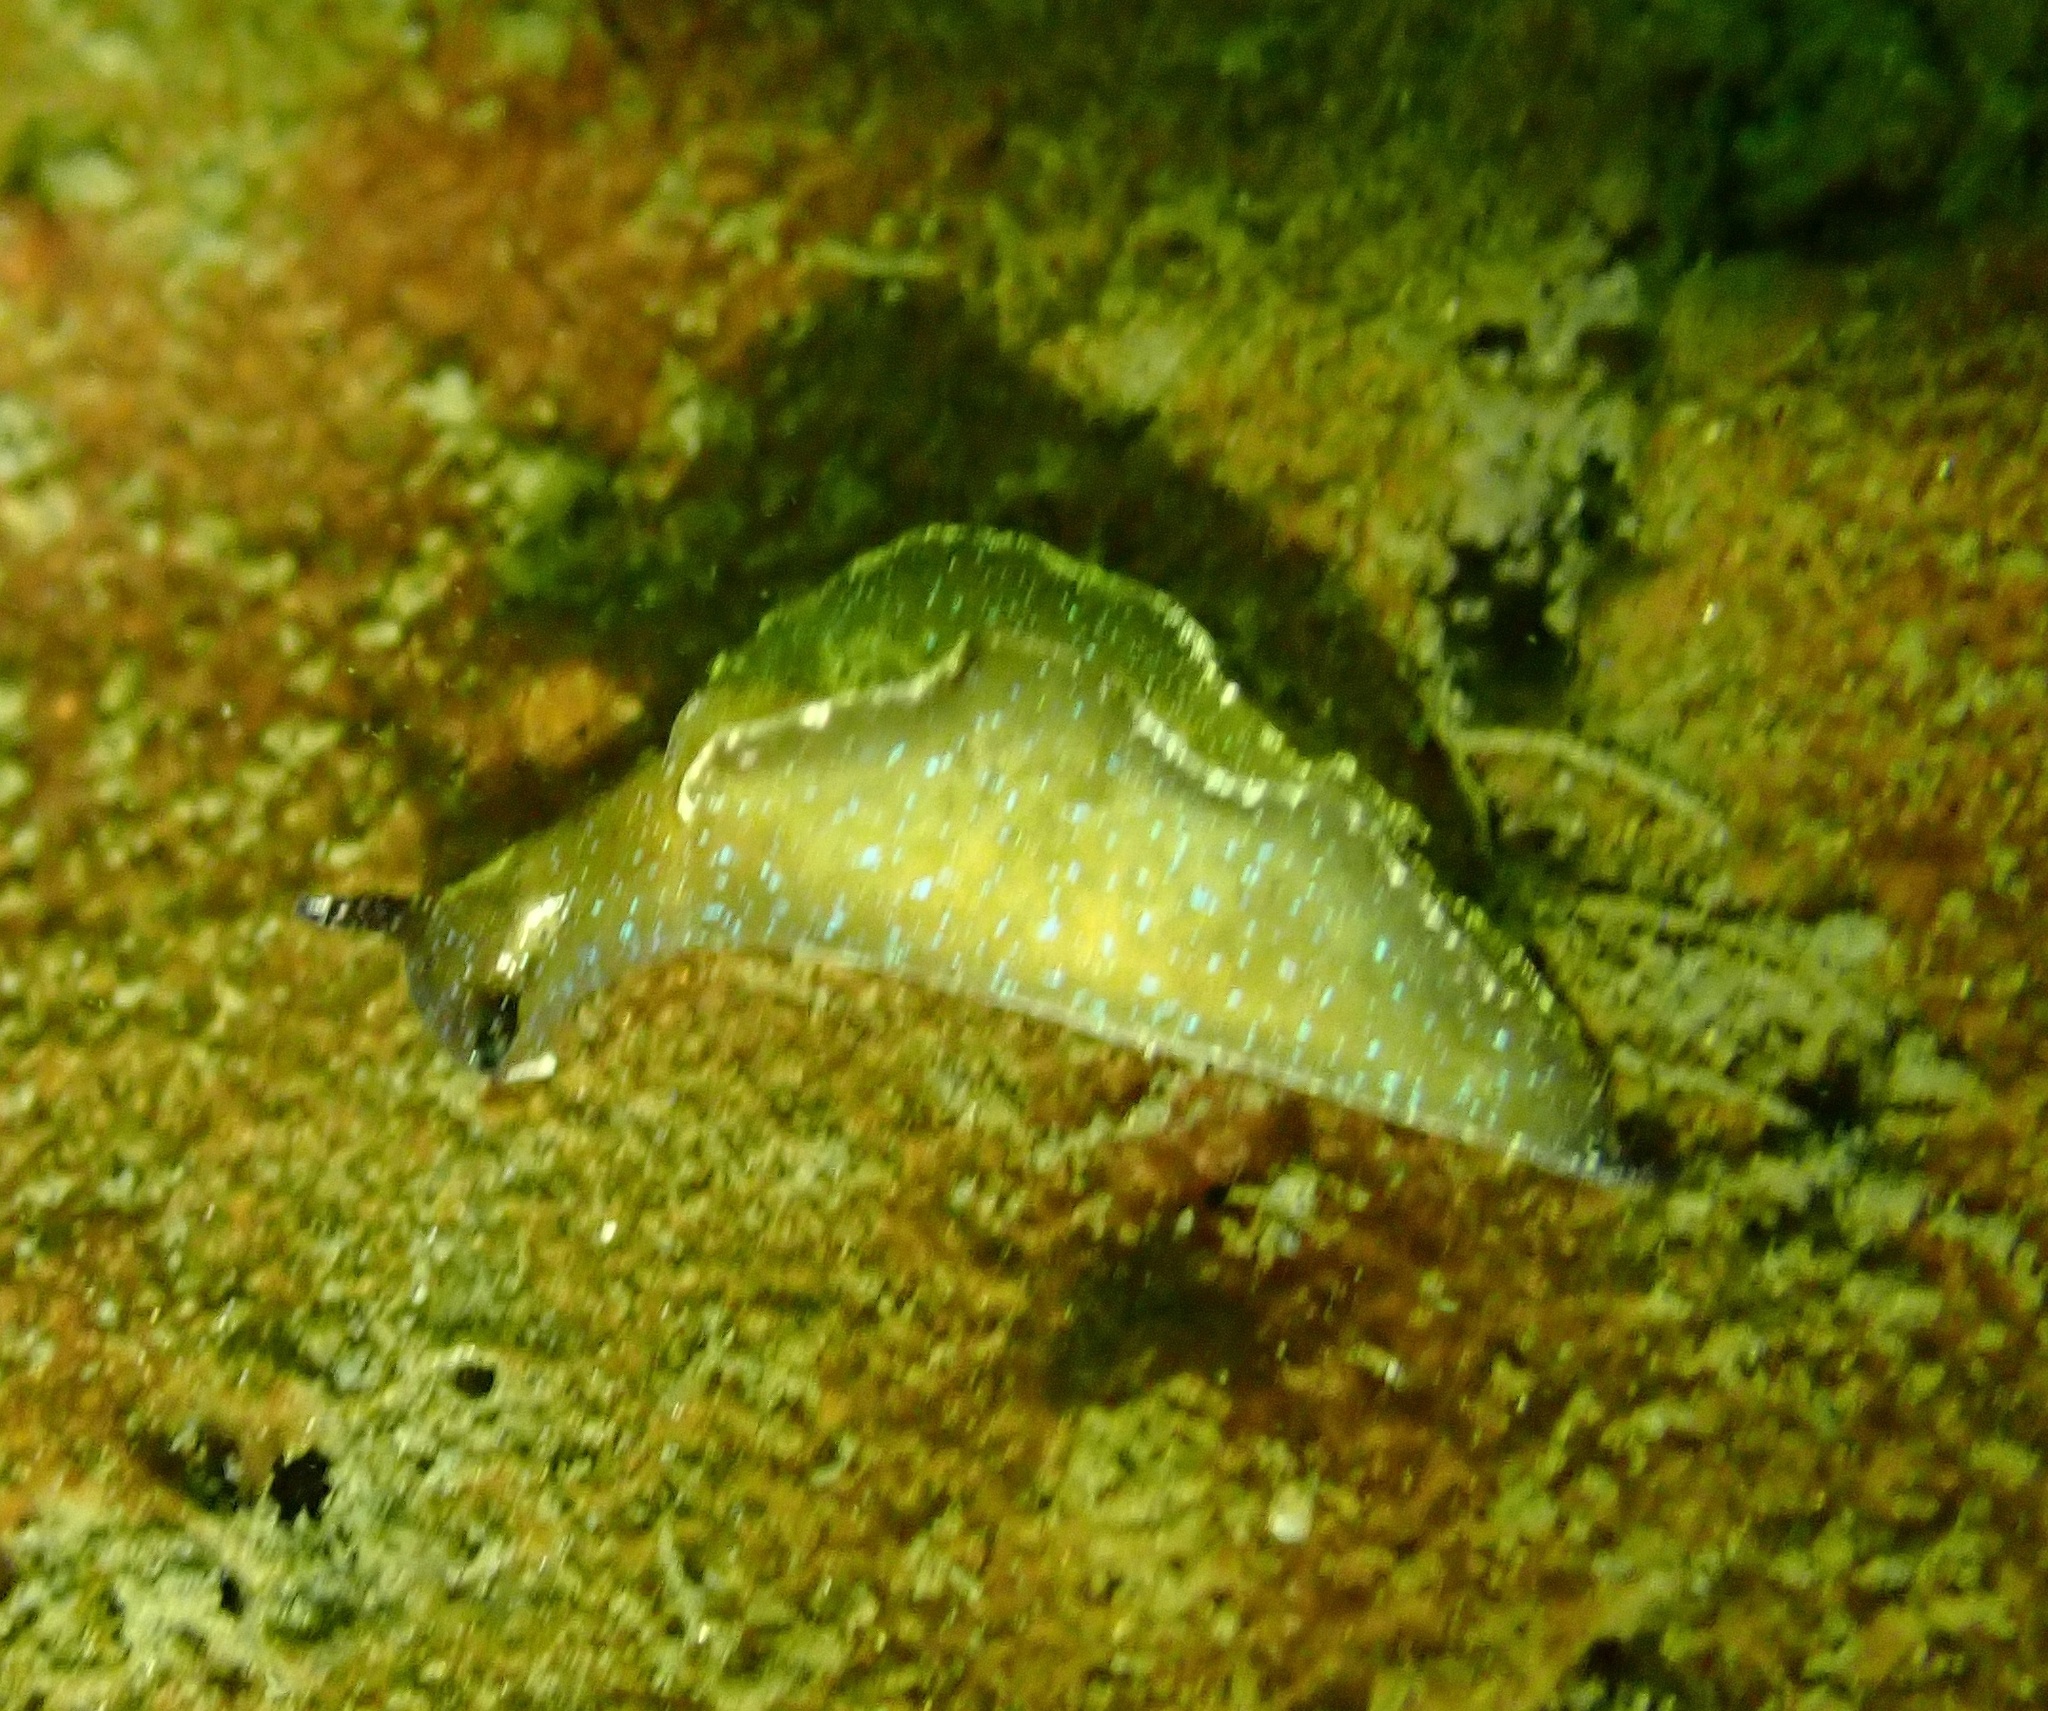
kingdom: Animalia
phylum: Mollusca
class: Gastropoda
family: Plakobranchidae
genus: Elysia
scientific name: Elysia viridis
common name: Green elysia
